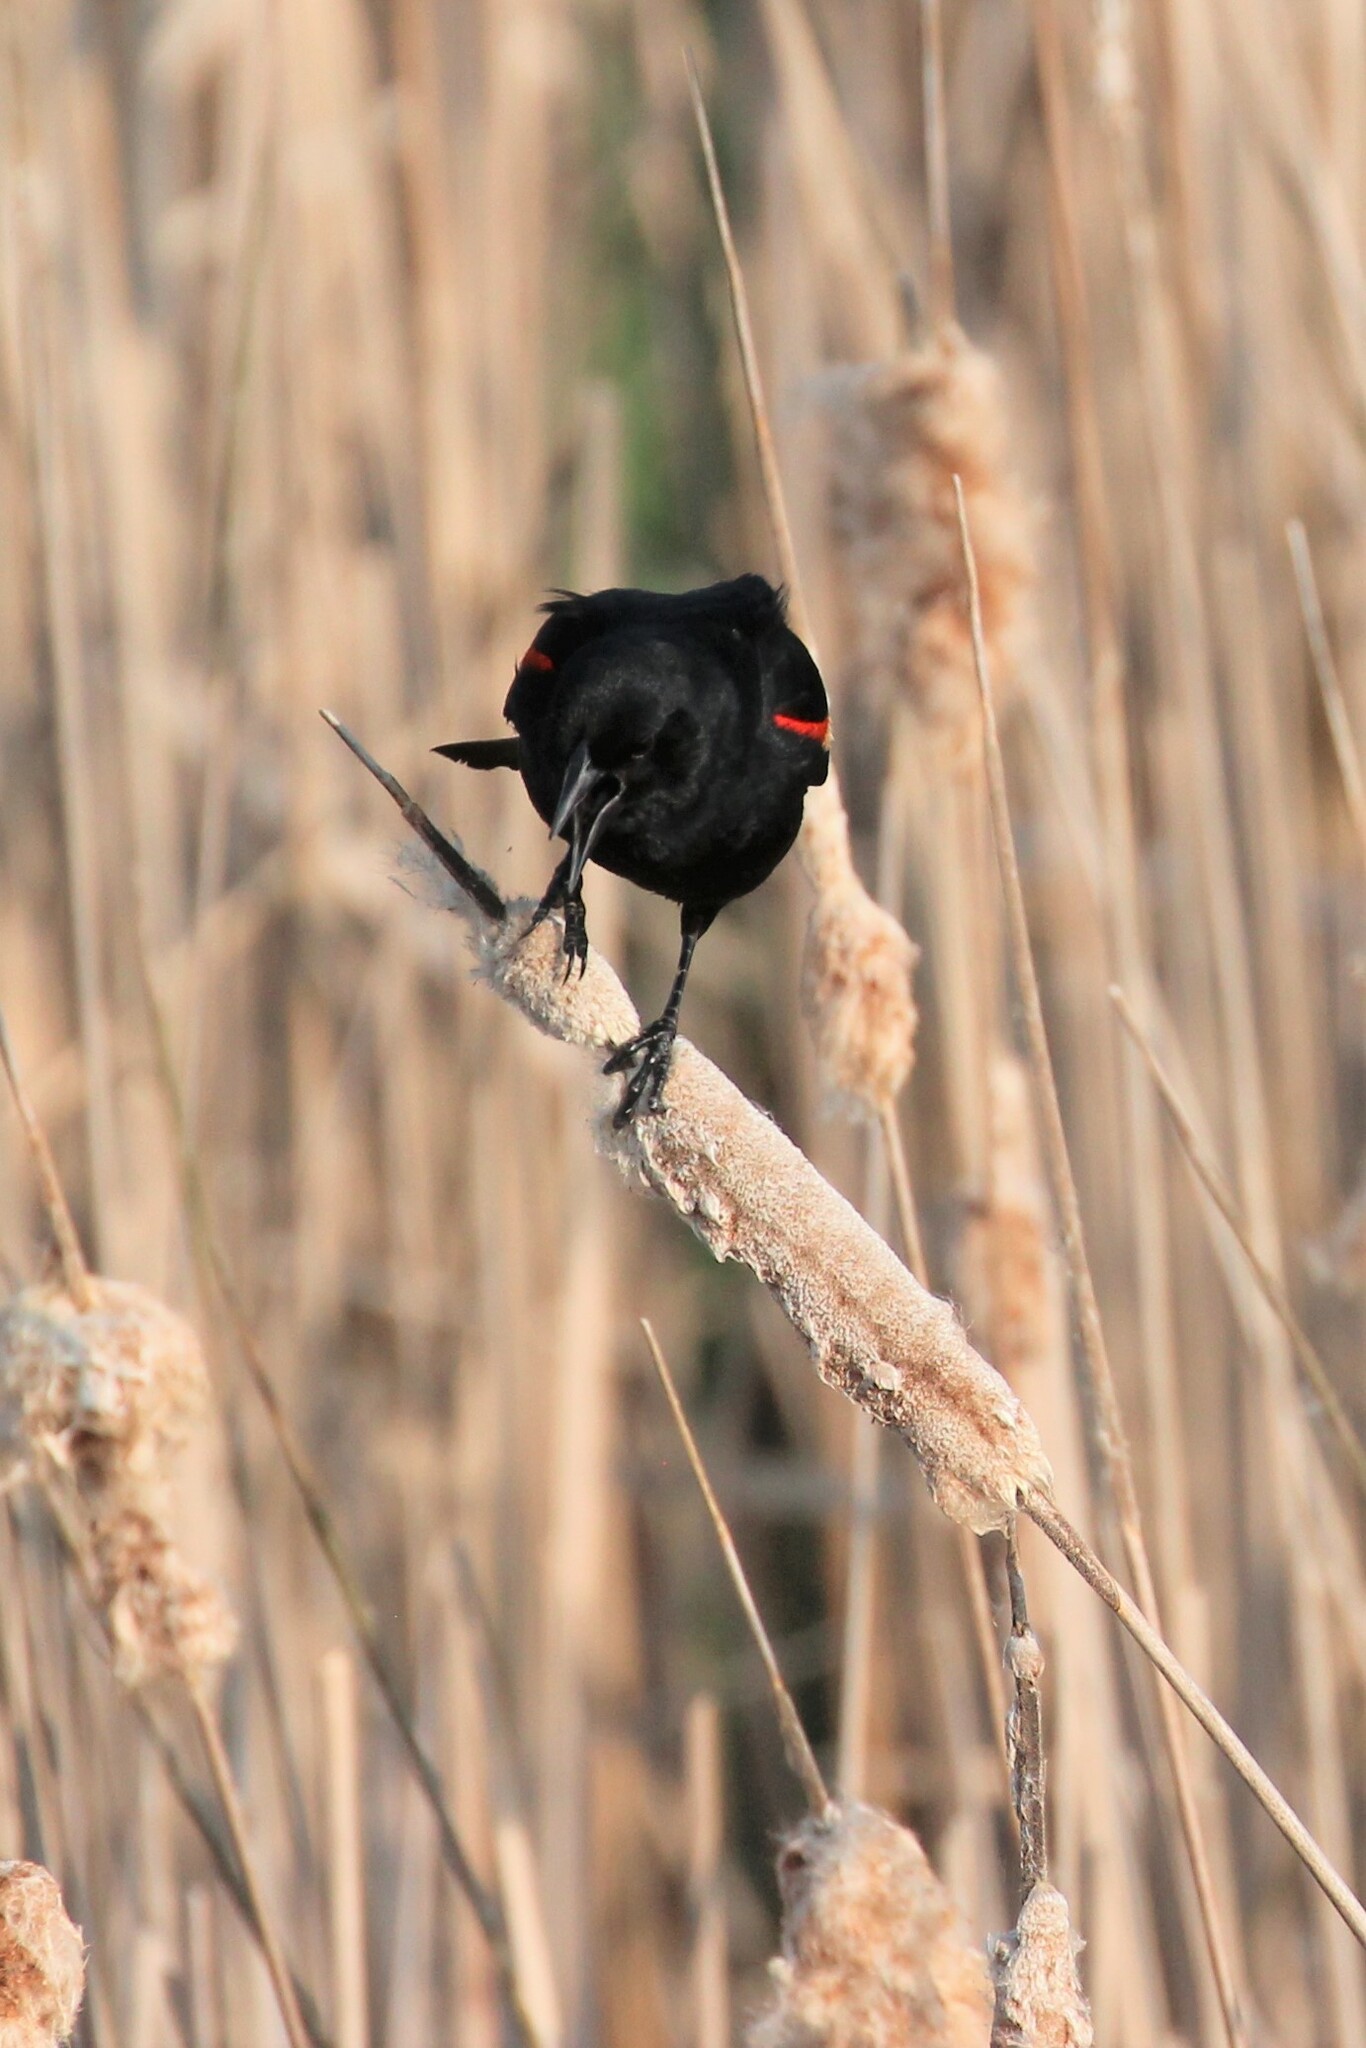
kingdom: Animalia
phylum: Chordata
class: Aves
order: Passeriformes
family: Icteridae
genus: Agelaius
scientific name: Agelaius phoeniceus
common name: Red-winged blackbird
